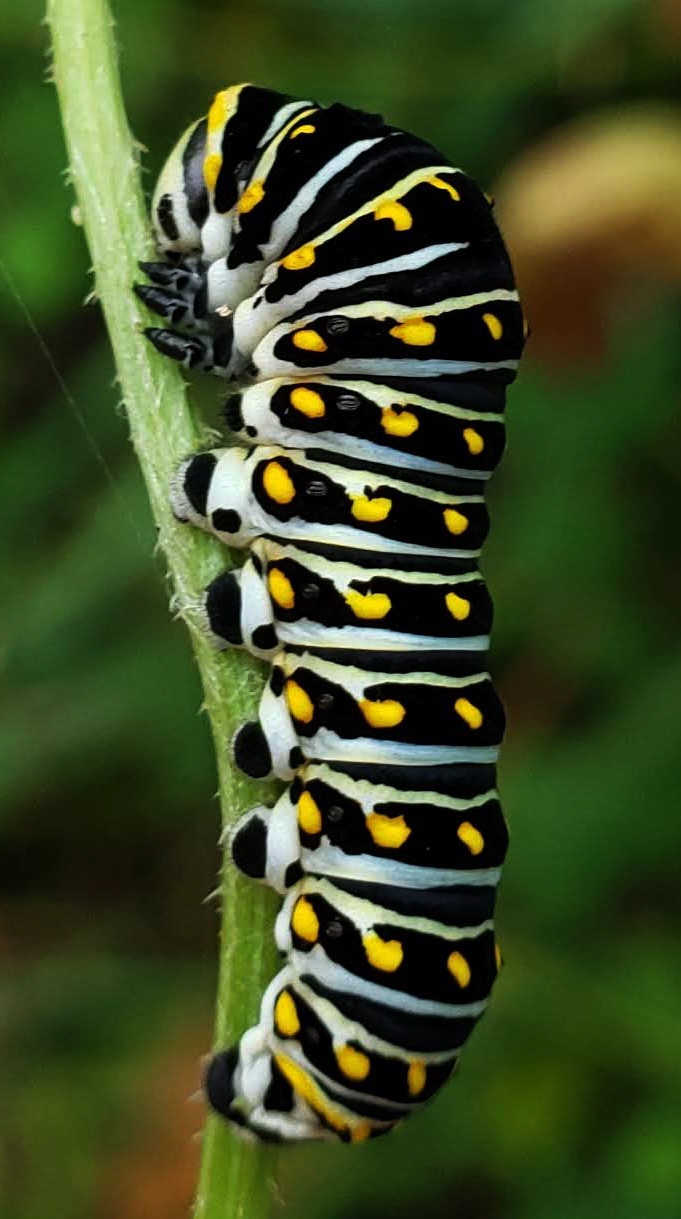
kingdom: Animalia
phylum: Arthropoda
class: Insecta
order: Lepidoptera
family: Papilionidae
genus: Papilio
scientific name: Papilio polyxenes
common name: Black swallowtail
